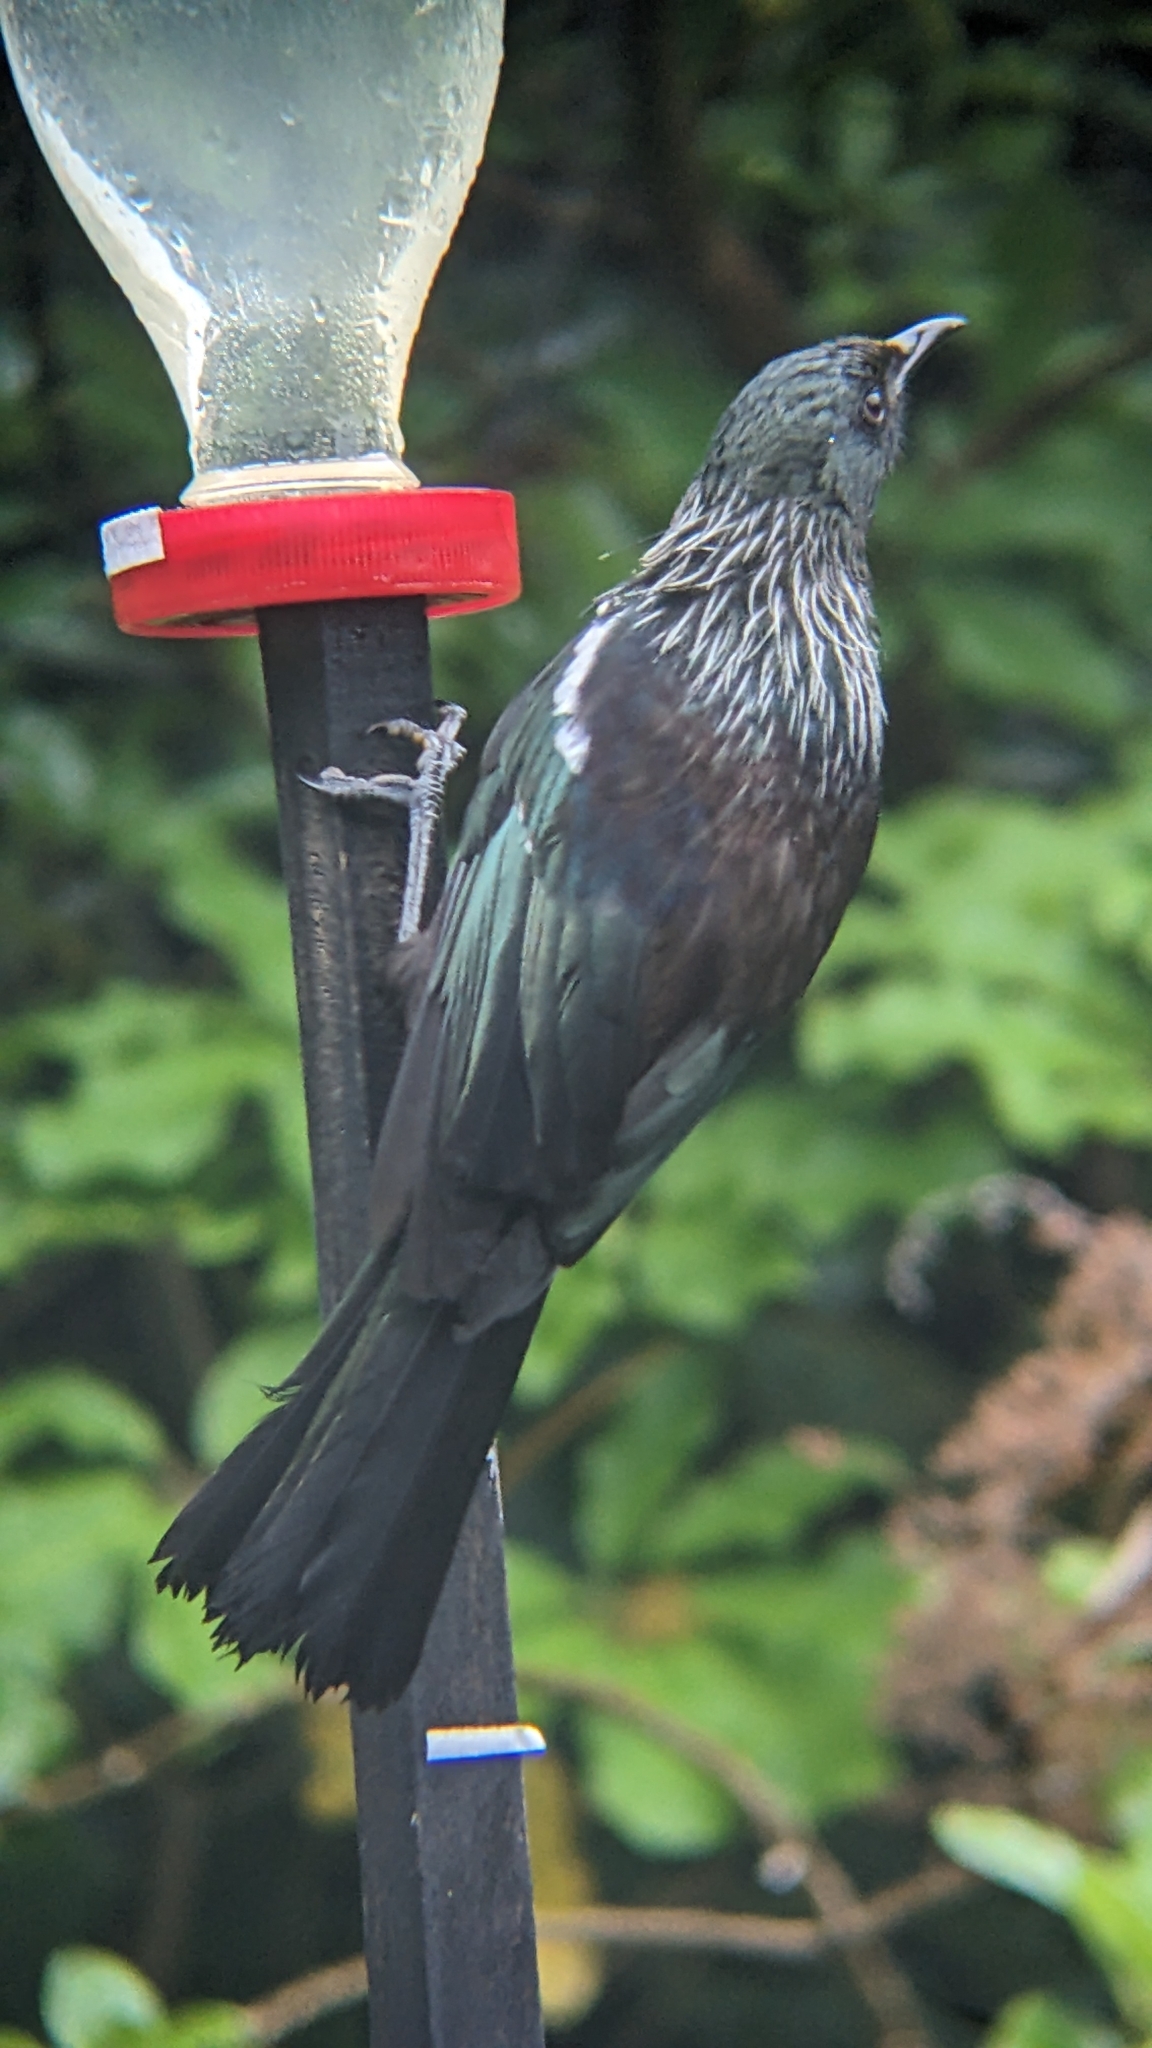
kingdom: Animalia
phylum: Chordata
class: Aves
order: Passeriformes
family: Meliphagidae
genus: Prosthemadera
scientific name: Prosthemadera novaeseelandiae
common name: Tui
